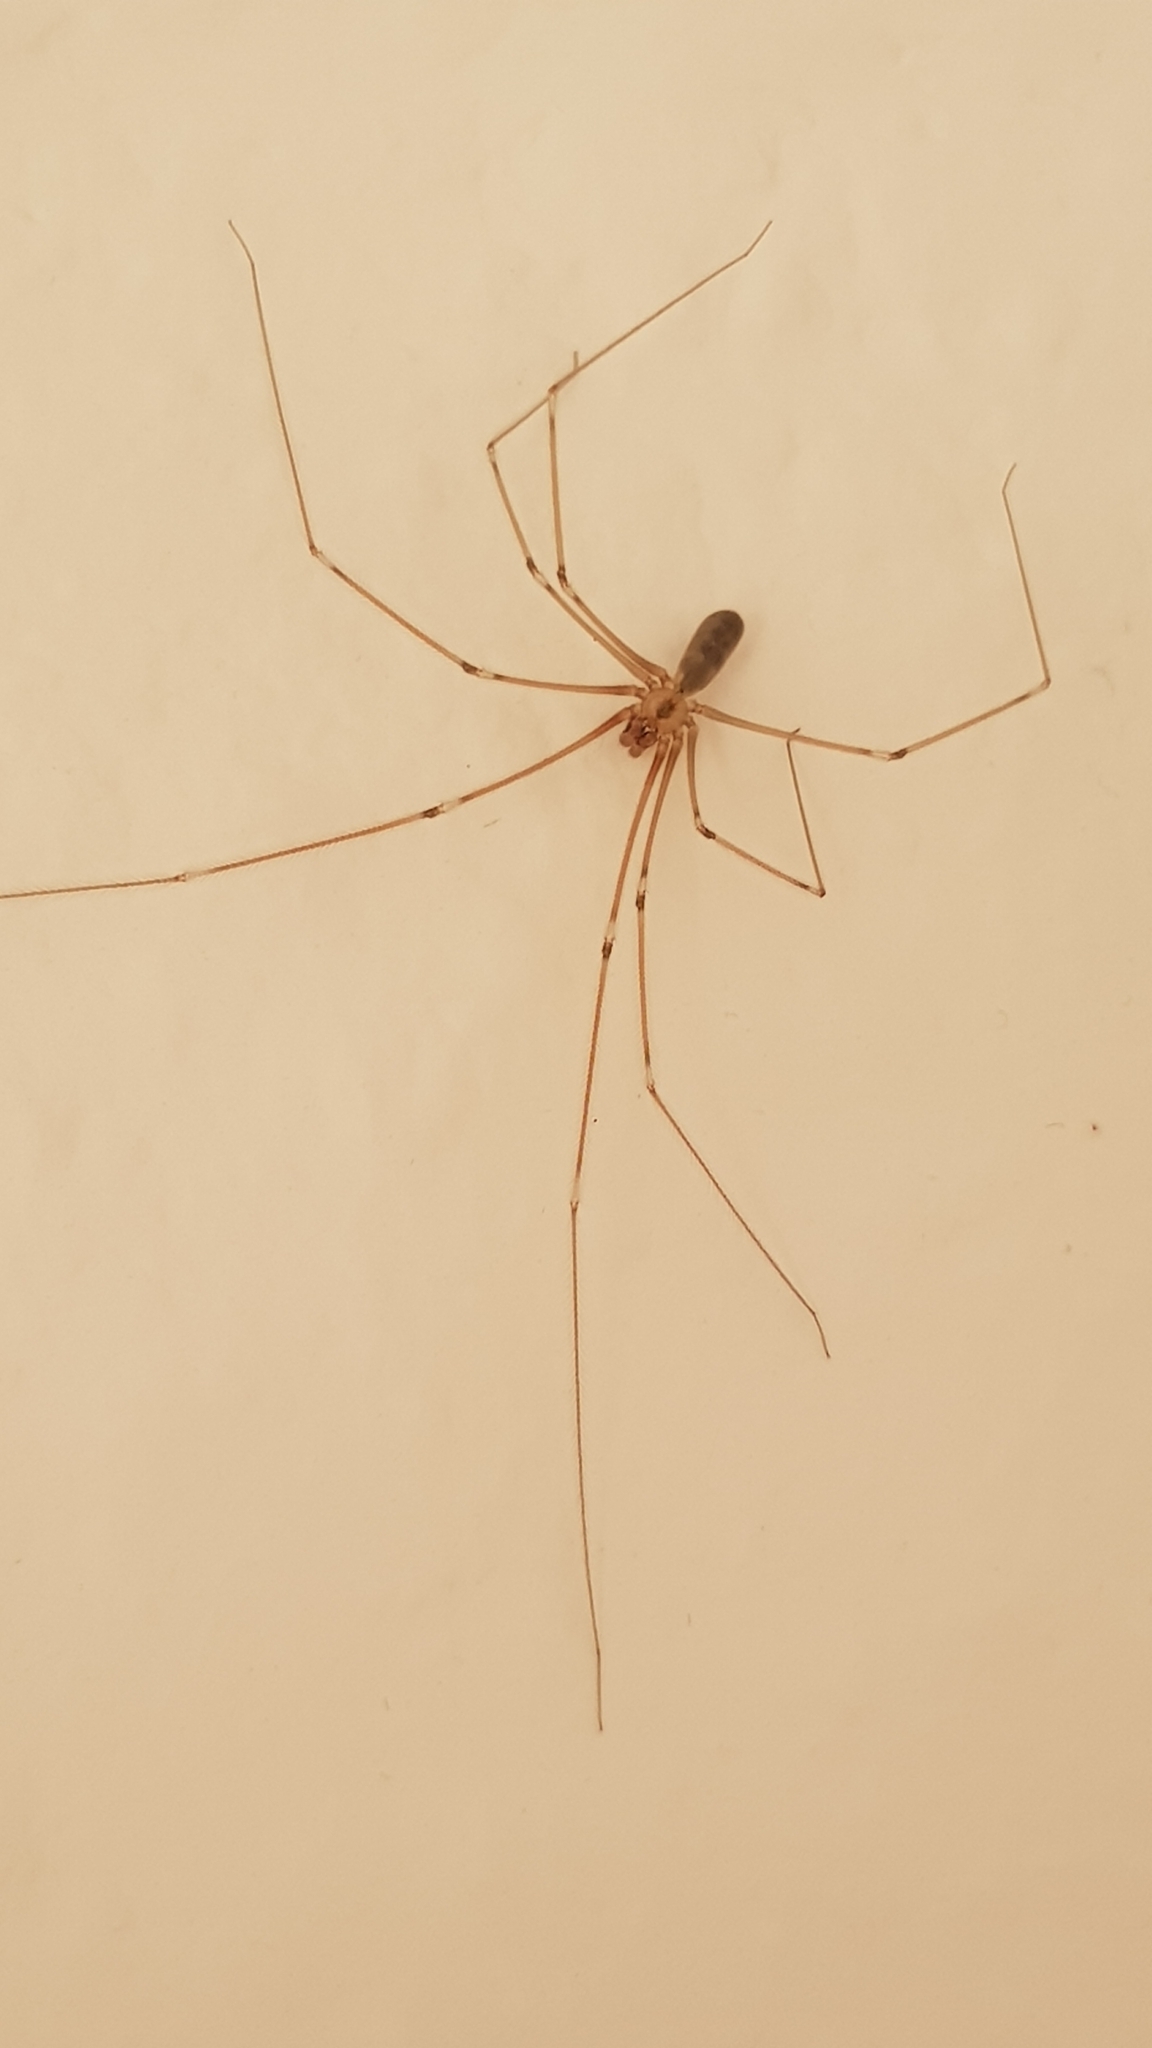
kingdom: Animalia
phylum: Arthropoda
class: Arachnida
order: Araneae
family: Pholcidae
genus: Pholcus
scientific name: Pholcus phalangioides
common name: Longbodied cellar spider
